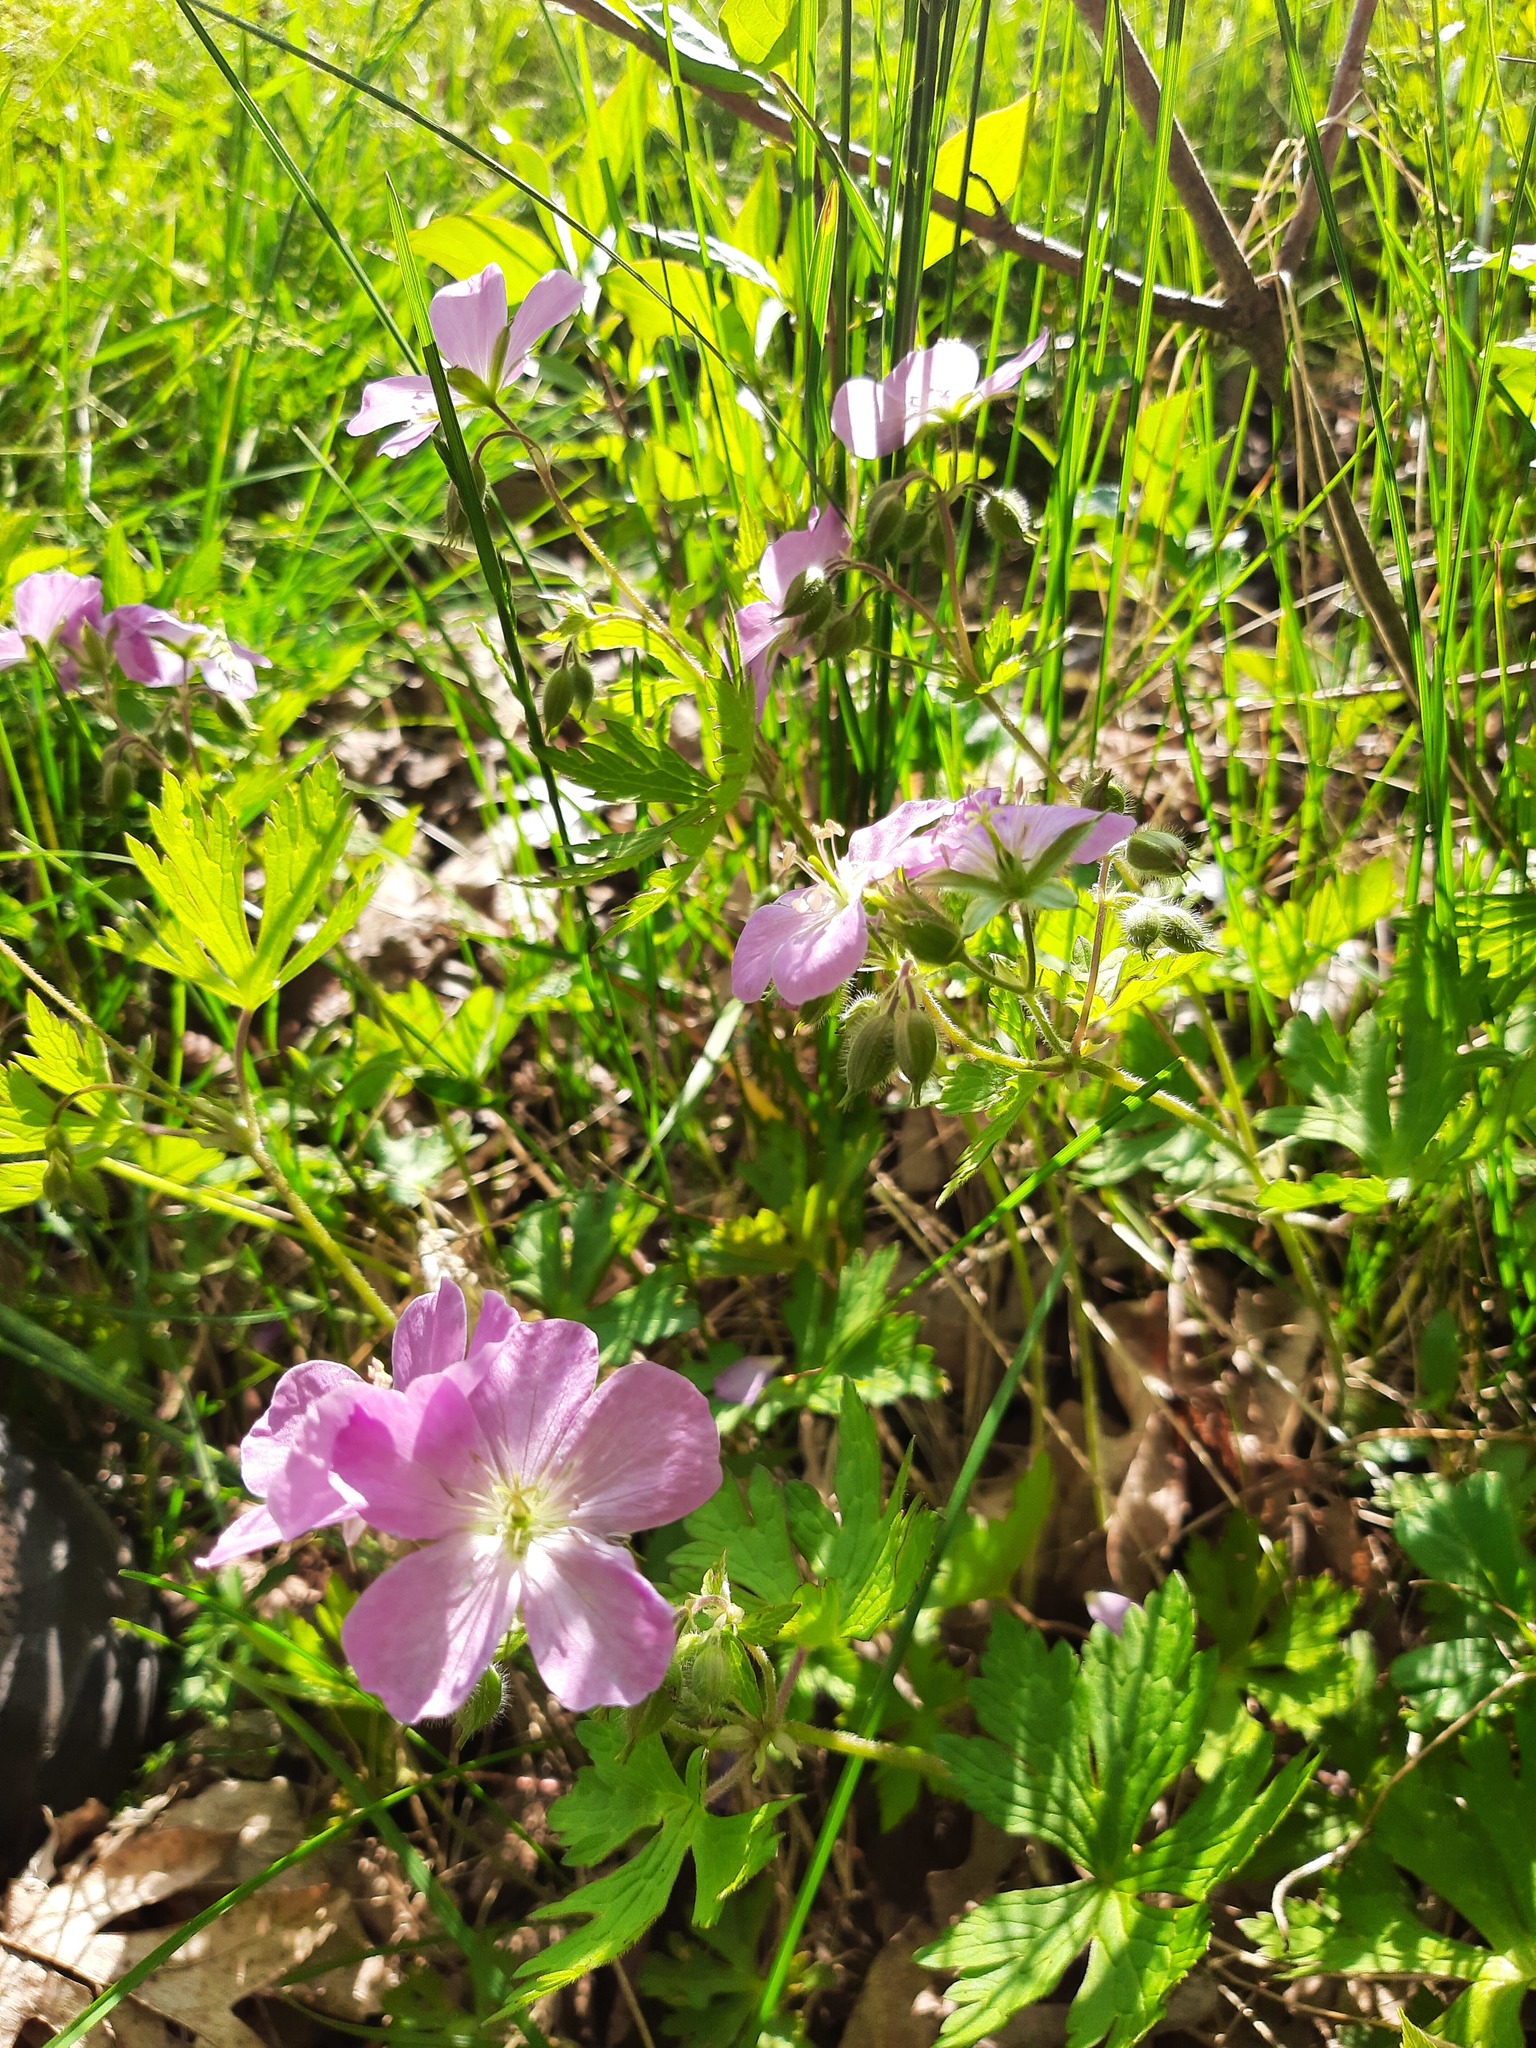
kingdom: Plantae
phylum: Tracheophyta
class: Magnoliopsida
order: Geraniales
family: Geraniaceae
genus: Geranium
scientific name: Geranium maculatum
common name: Spotted geranium
